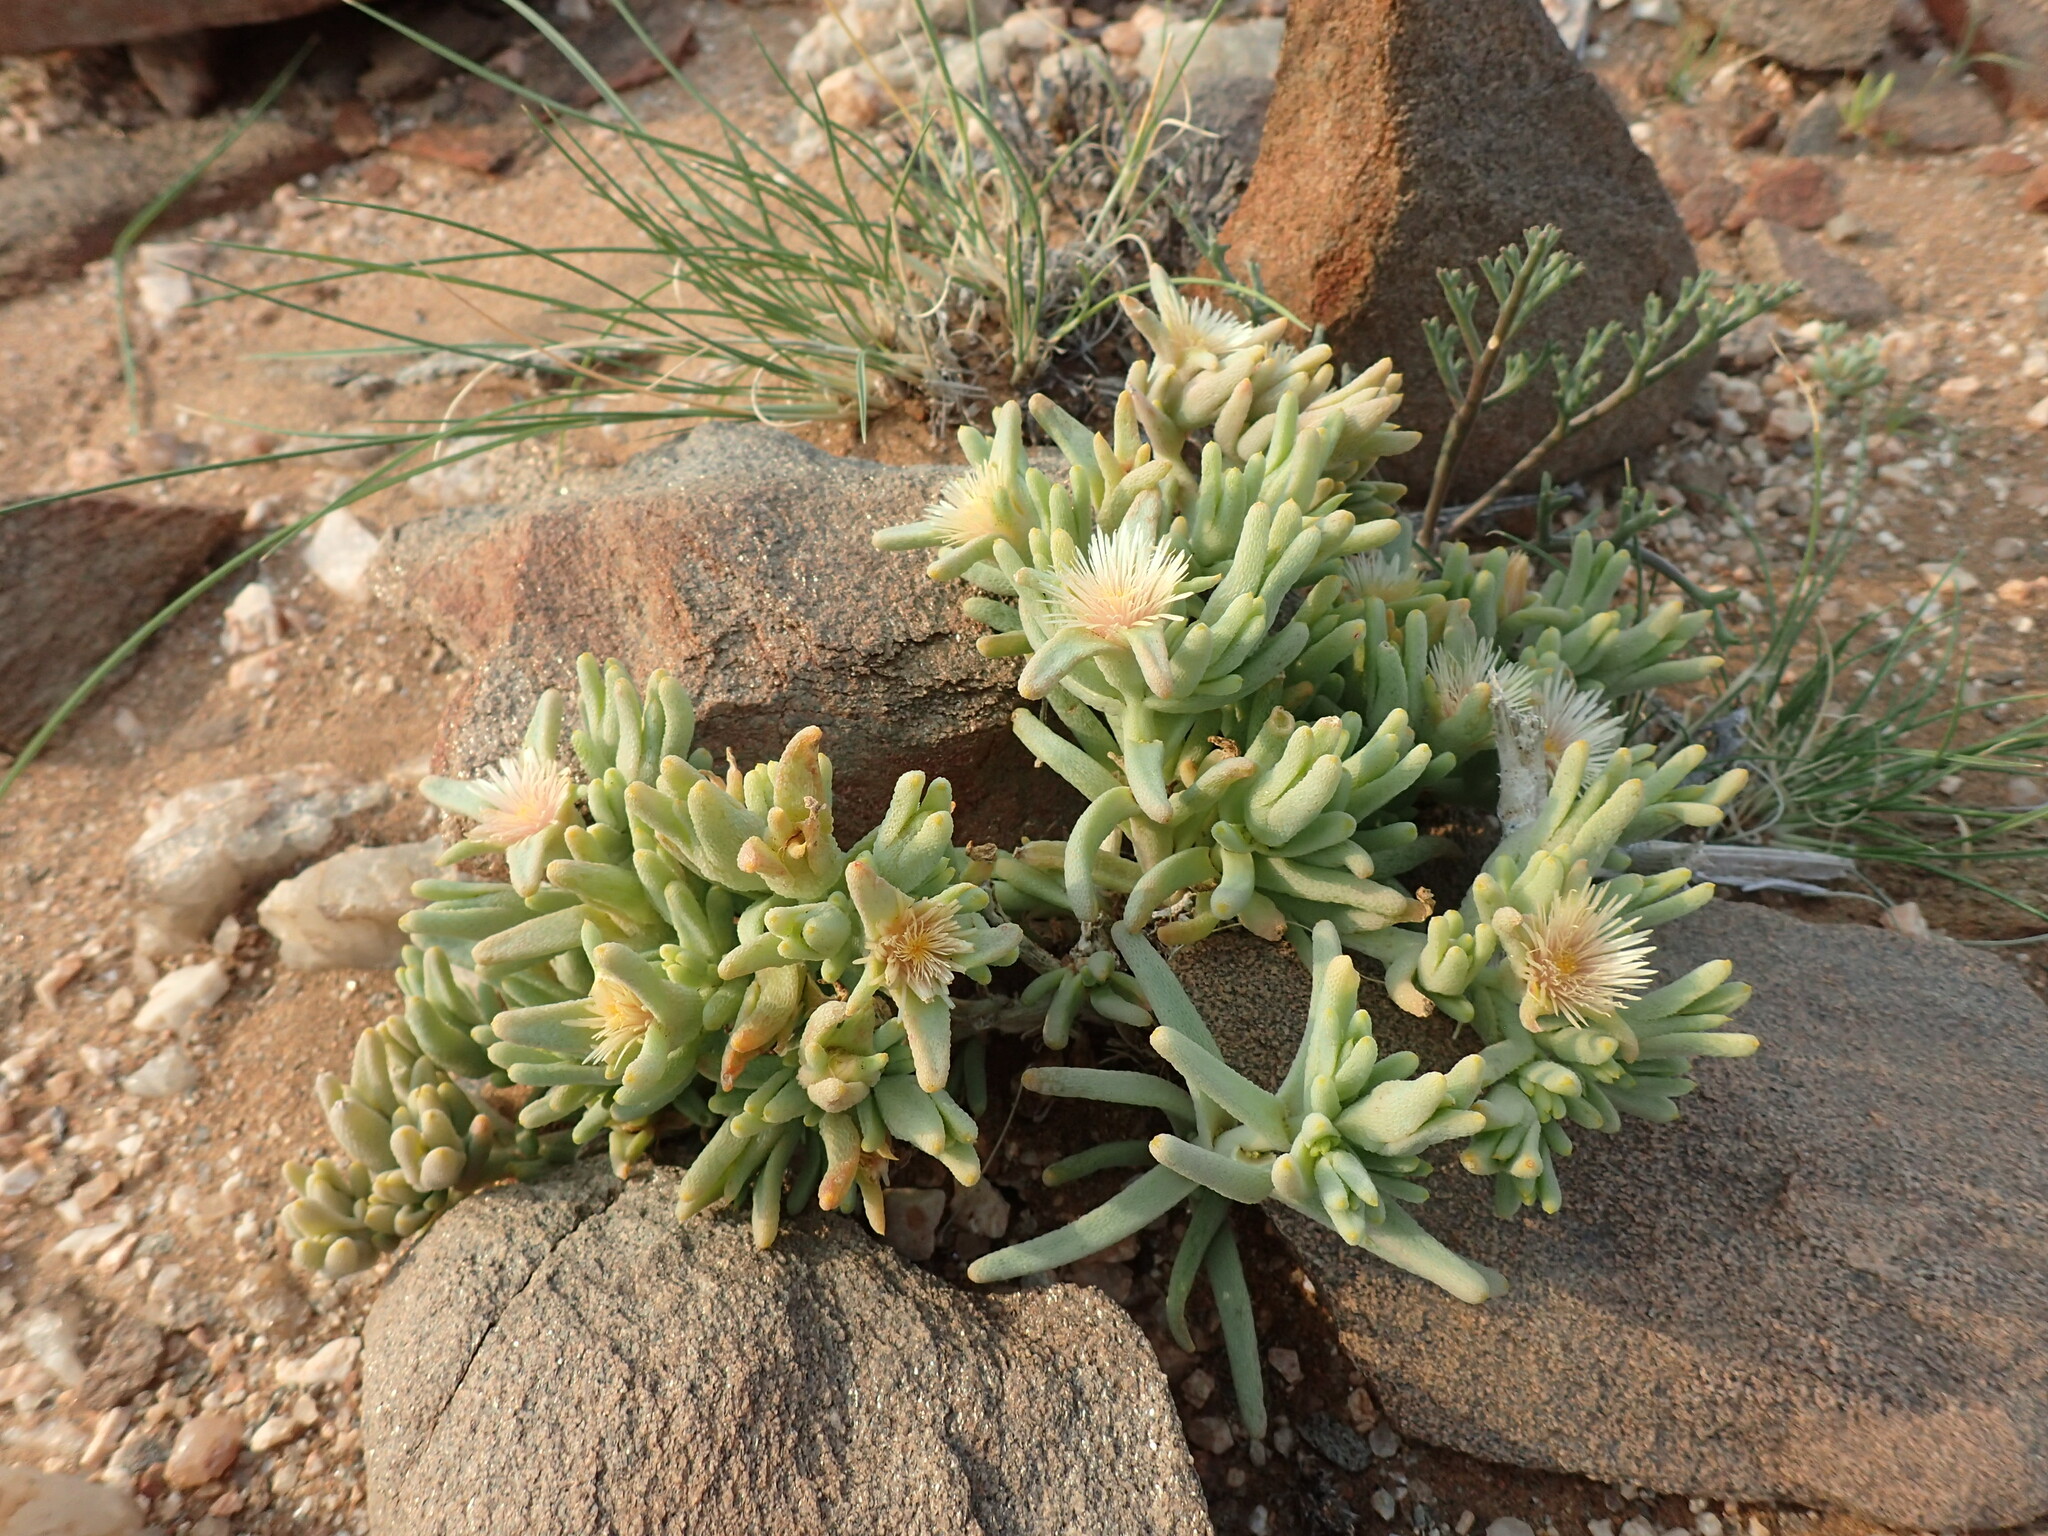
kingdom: Plantae
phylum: Tracheophyta
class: Magnoliopsida
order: Caryophyllales
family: Aizoaceae
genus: Mesembryanthemum
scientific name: Mesembryanthemum oculatum
